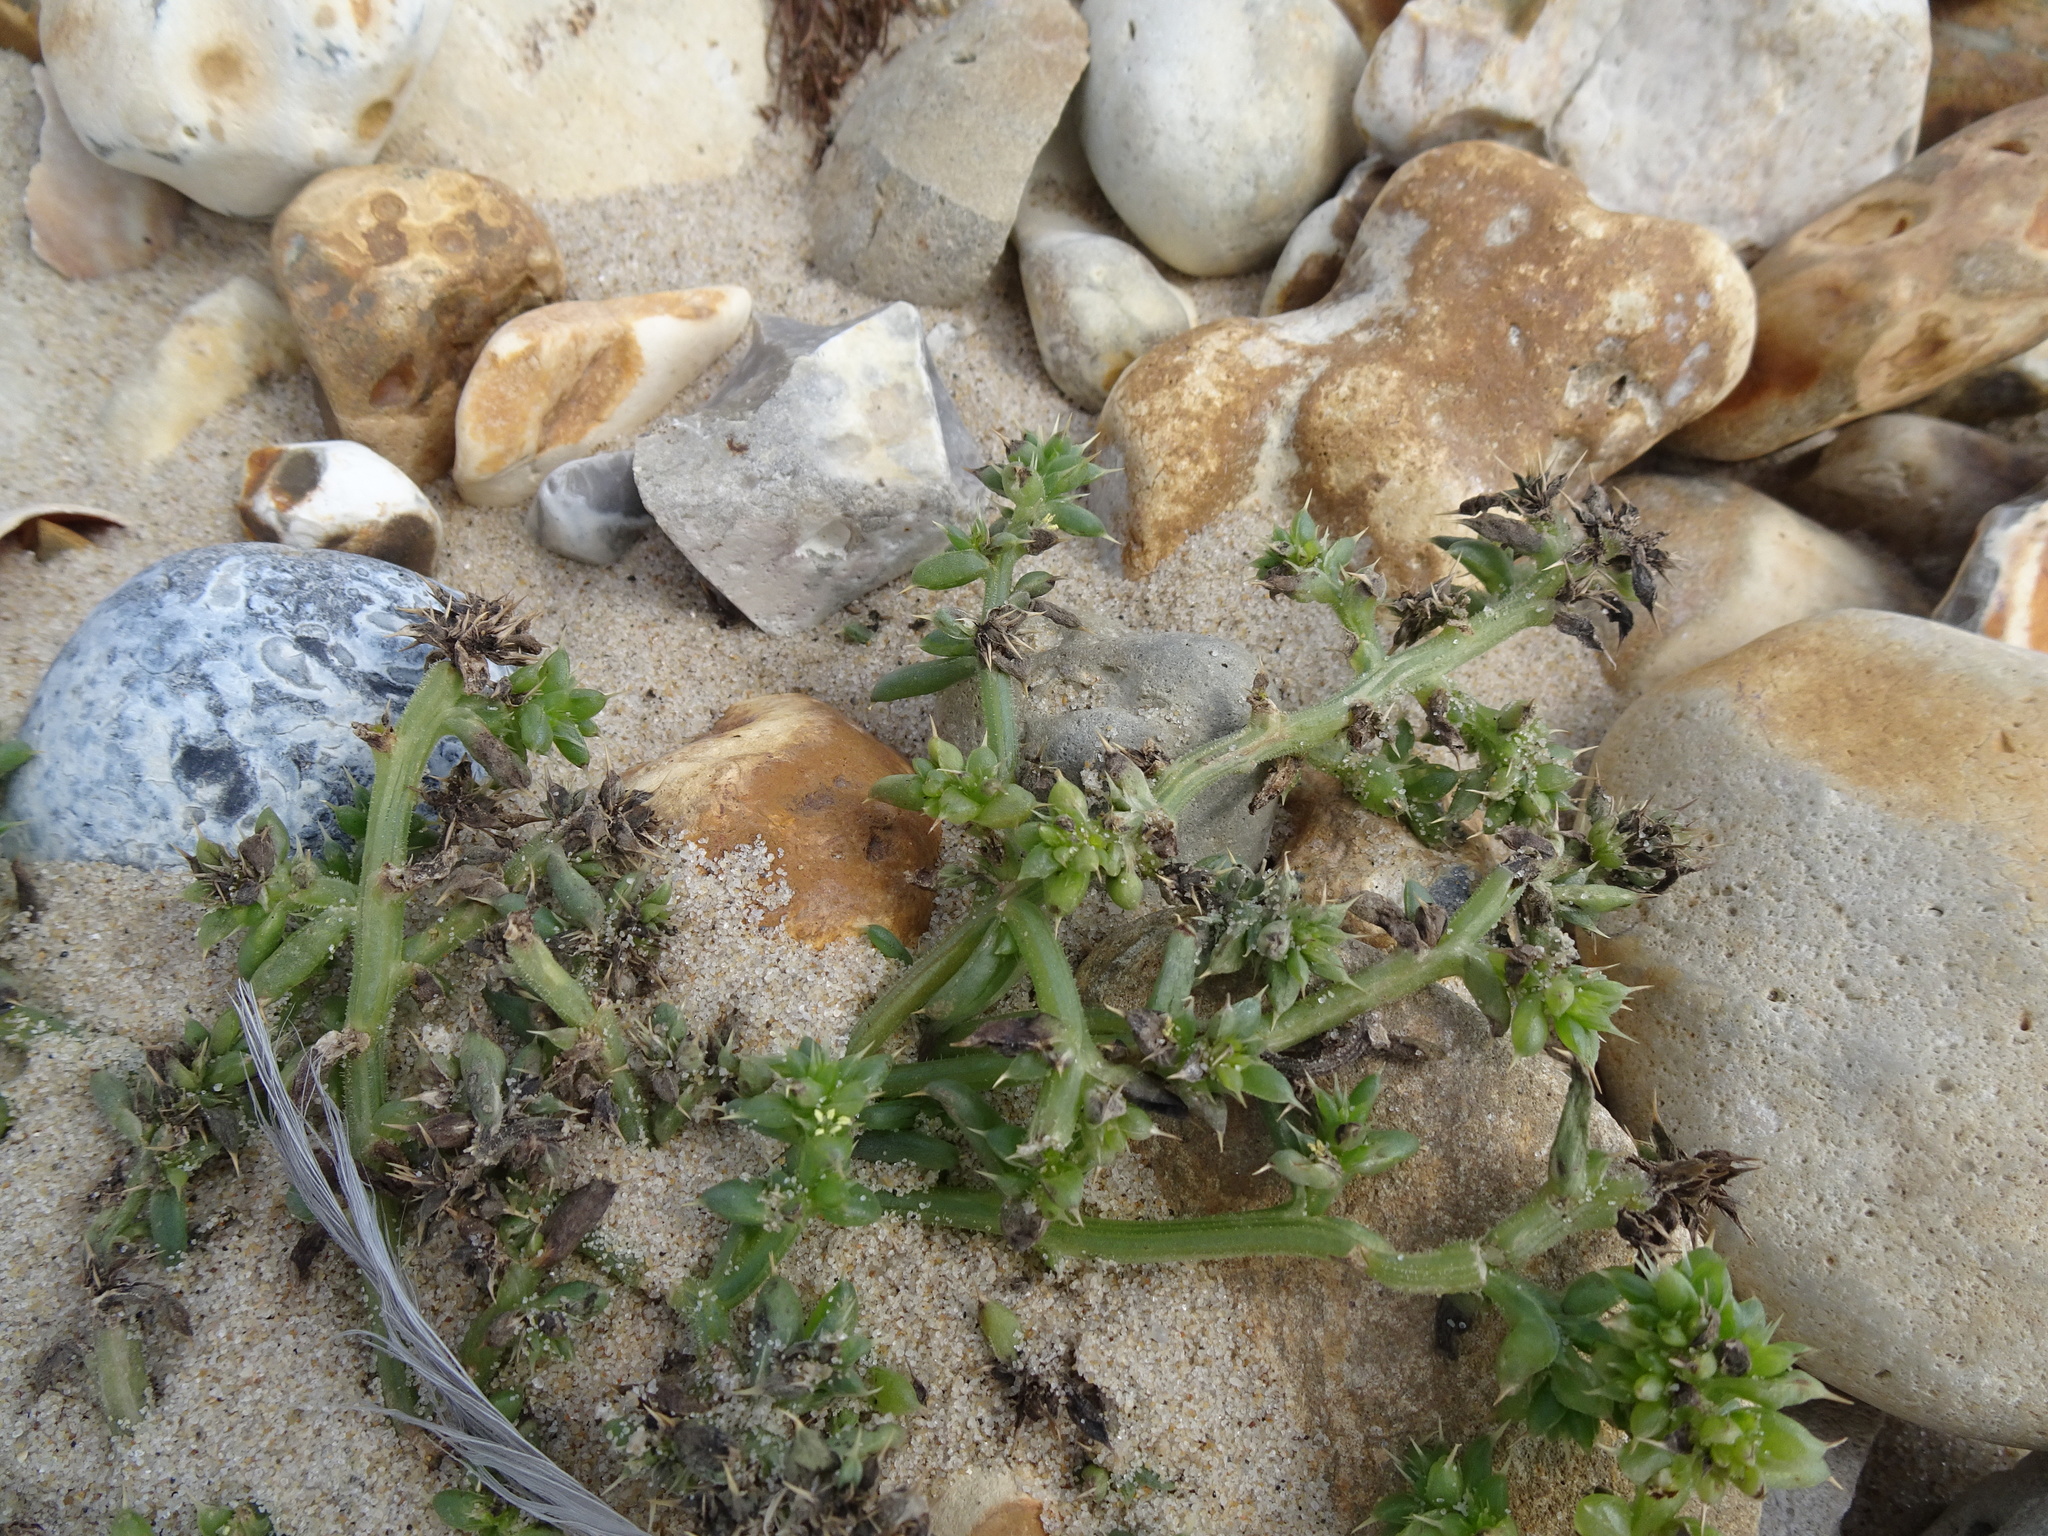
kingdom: Plantae
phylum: Tracheophyta
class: Magnoliopsida
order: Caryophyllales
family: Amaranthaceae
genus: Salsola
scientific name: Salsola kali
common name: Saltwort
